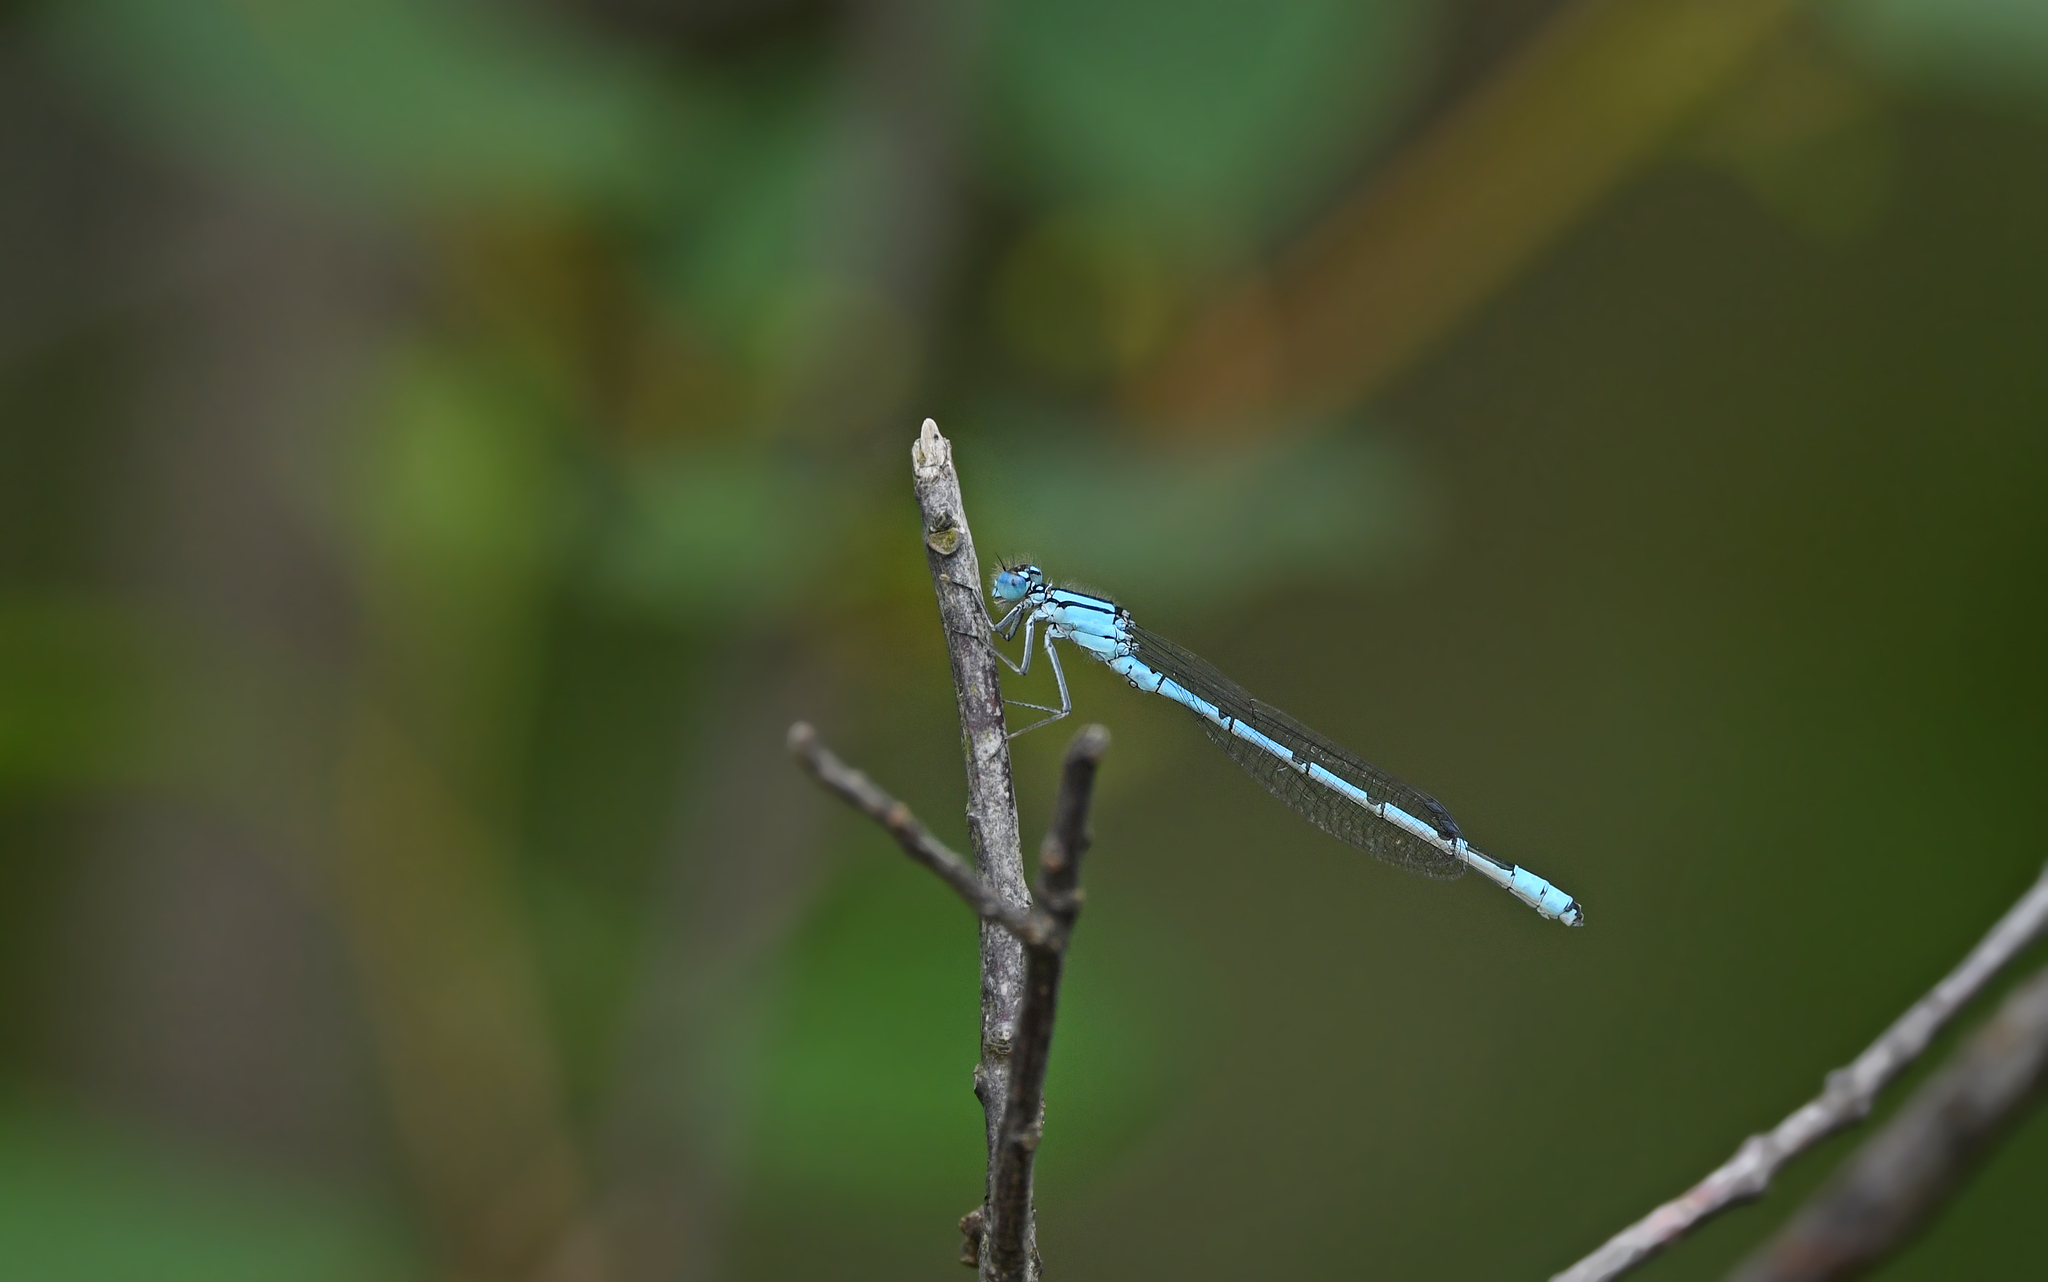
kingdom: Animalia
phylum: Arthropoda
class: Insecta
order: Odonata
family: Coenagrionidae
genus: Enallagma
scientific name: Enallagma cyathigerum
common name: Common blue damselfly
